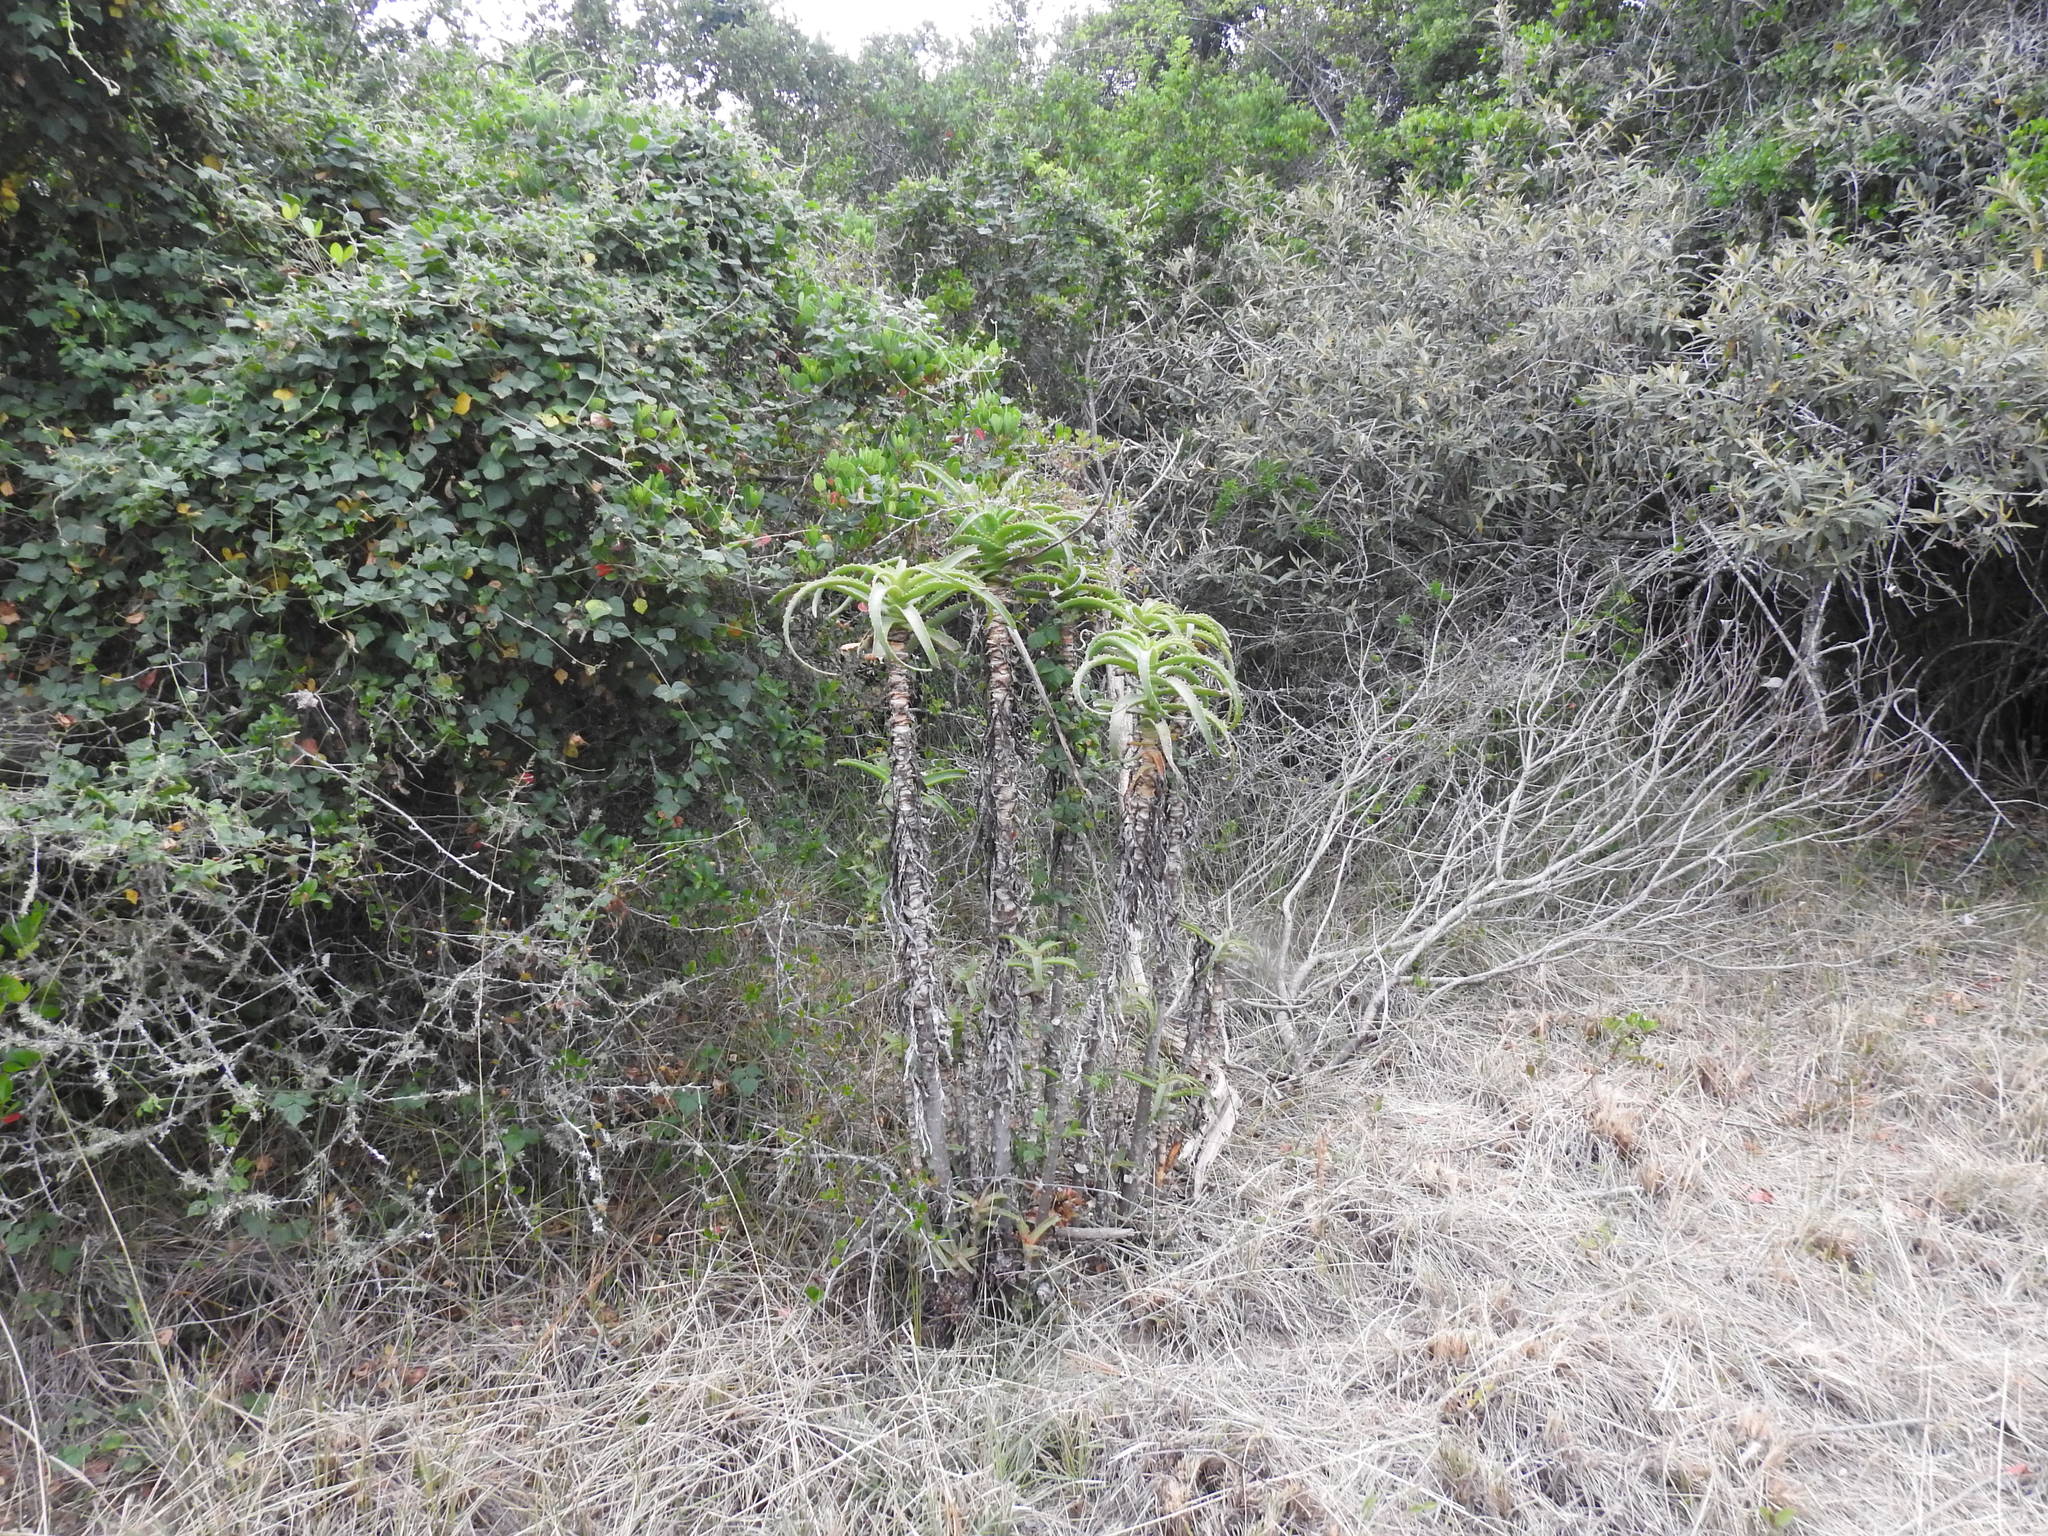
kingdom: Plantae
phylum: Tracheophyta
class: Liliopsida
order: Asparagales
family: Asphodelaceae
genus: Aloe
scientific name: Aloe arborescens
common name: Candelabra aloe
